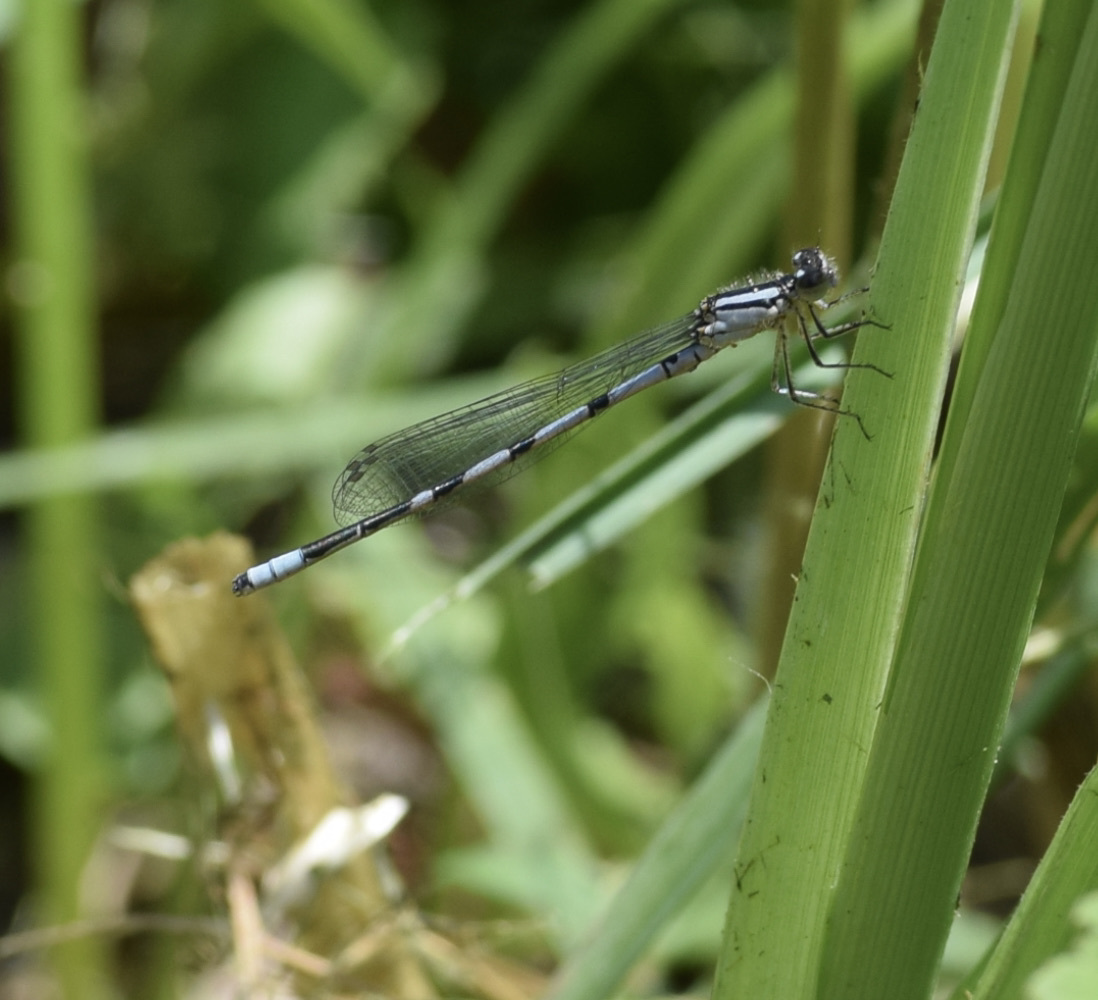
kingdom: Animalia
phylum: Arthropoda
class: Insecta
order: Odonata
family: Coenagrionidae
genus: Enallagma
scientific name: Enallagma ebrium
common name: Marsh bluet
